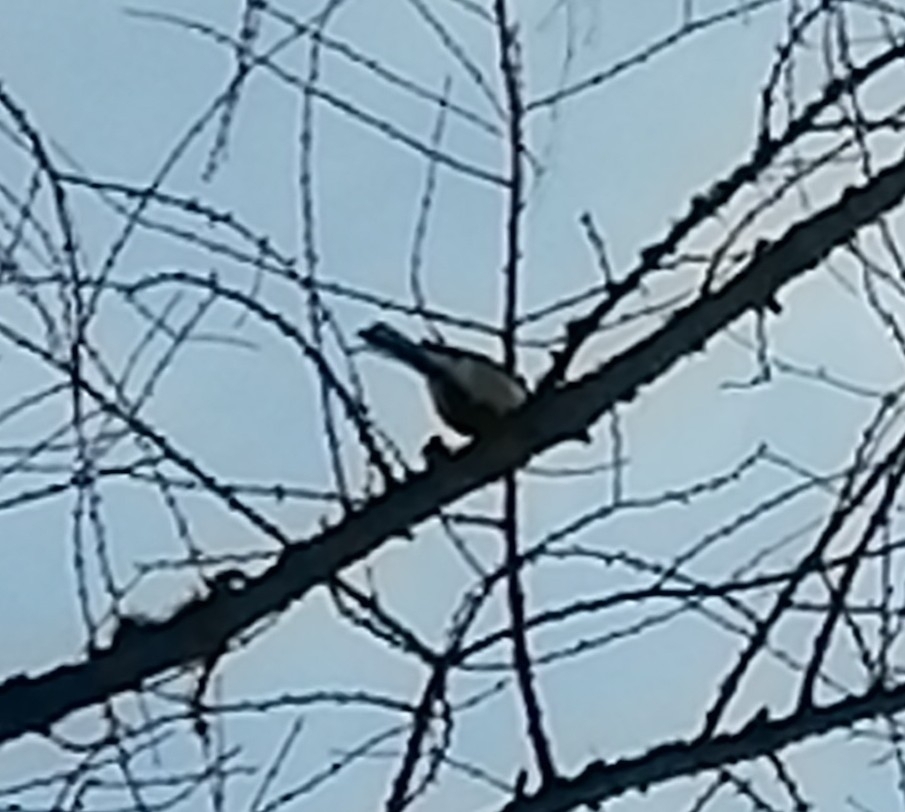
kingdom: Animalia
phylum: Chordata
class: Aves
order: Passeriformes
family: Paridae
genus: Parus
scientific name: Parus major
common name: Great tit
